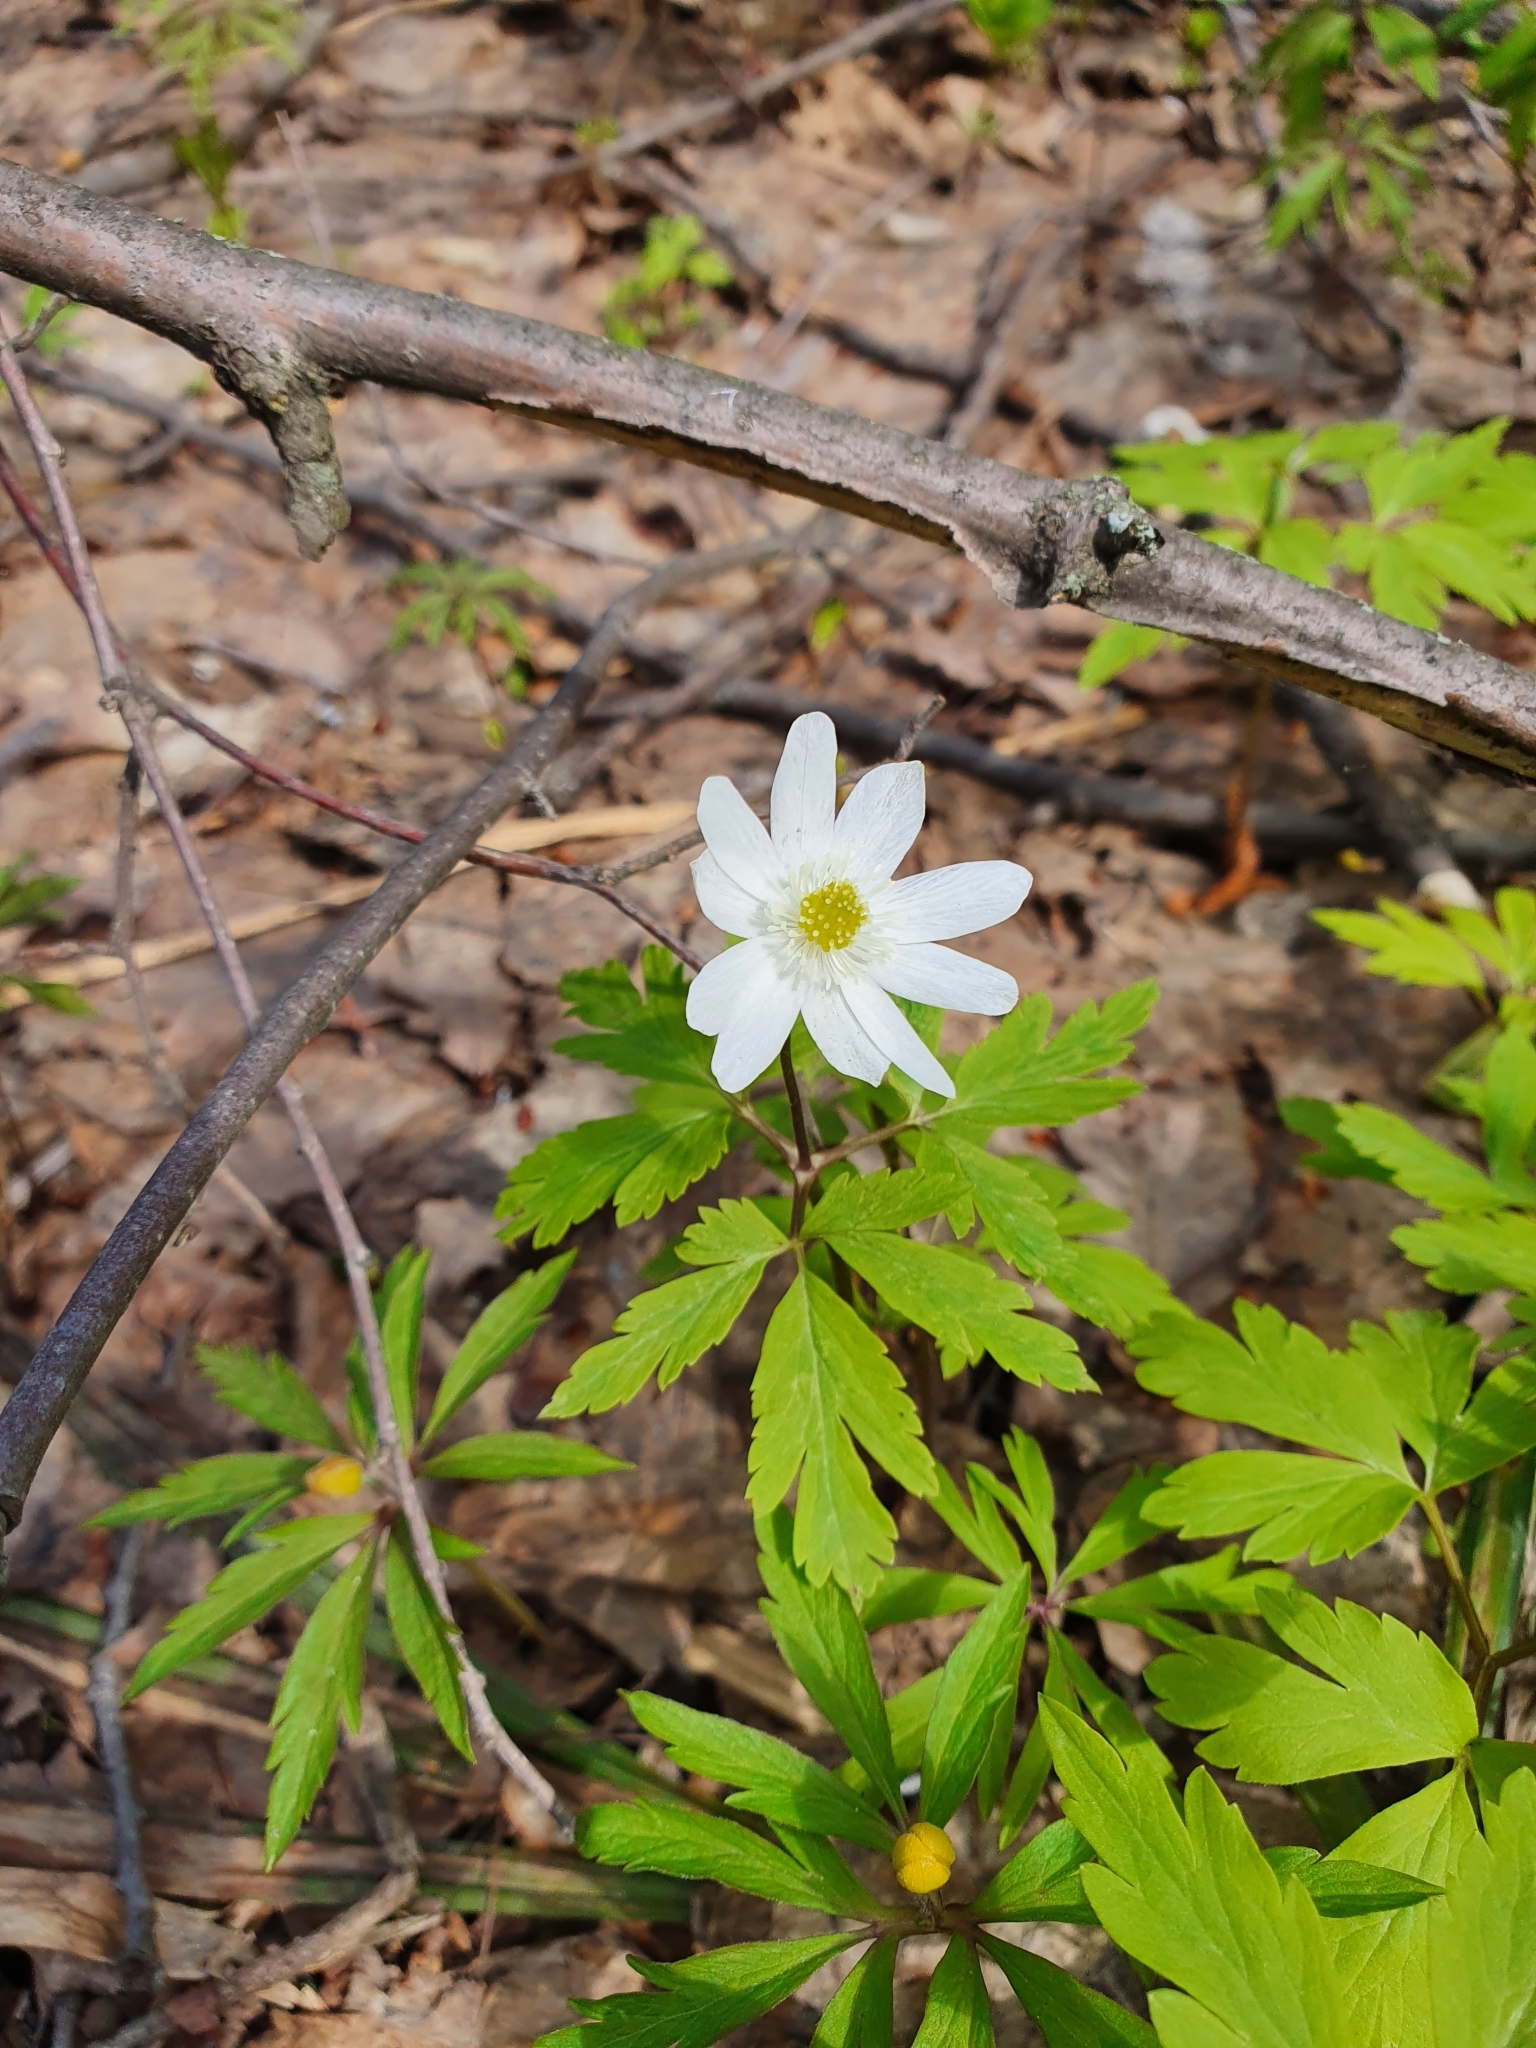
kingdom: Plantae
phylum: Tracheophyta
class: Magnoliopsida
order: Ranunculales
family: Ranunculaceae
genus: Anemone
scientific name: Anemone altaica
